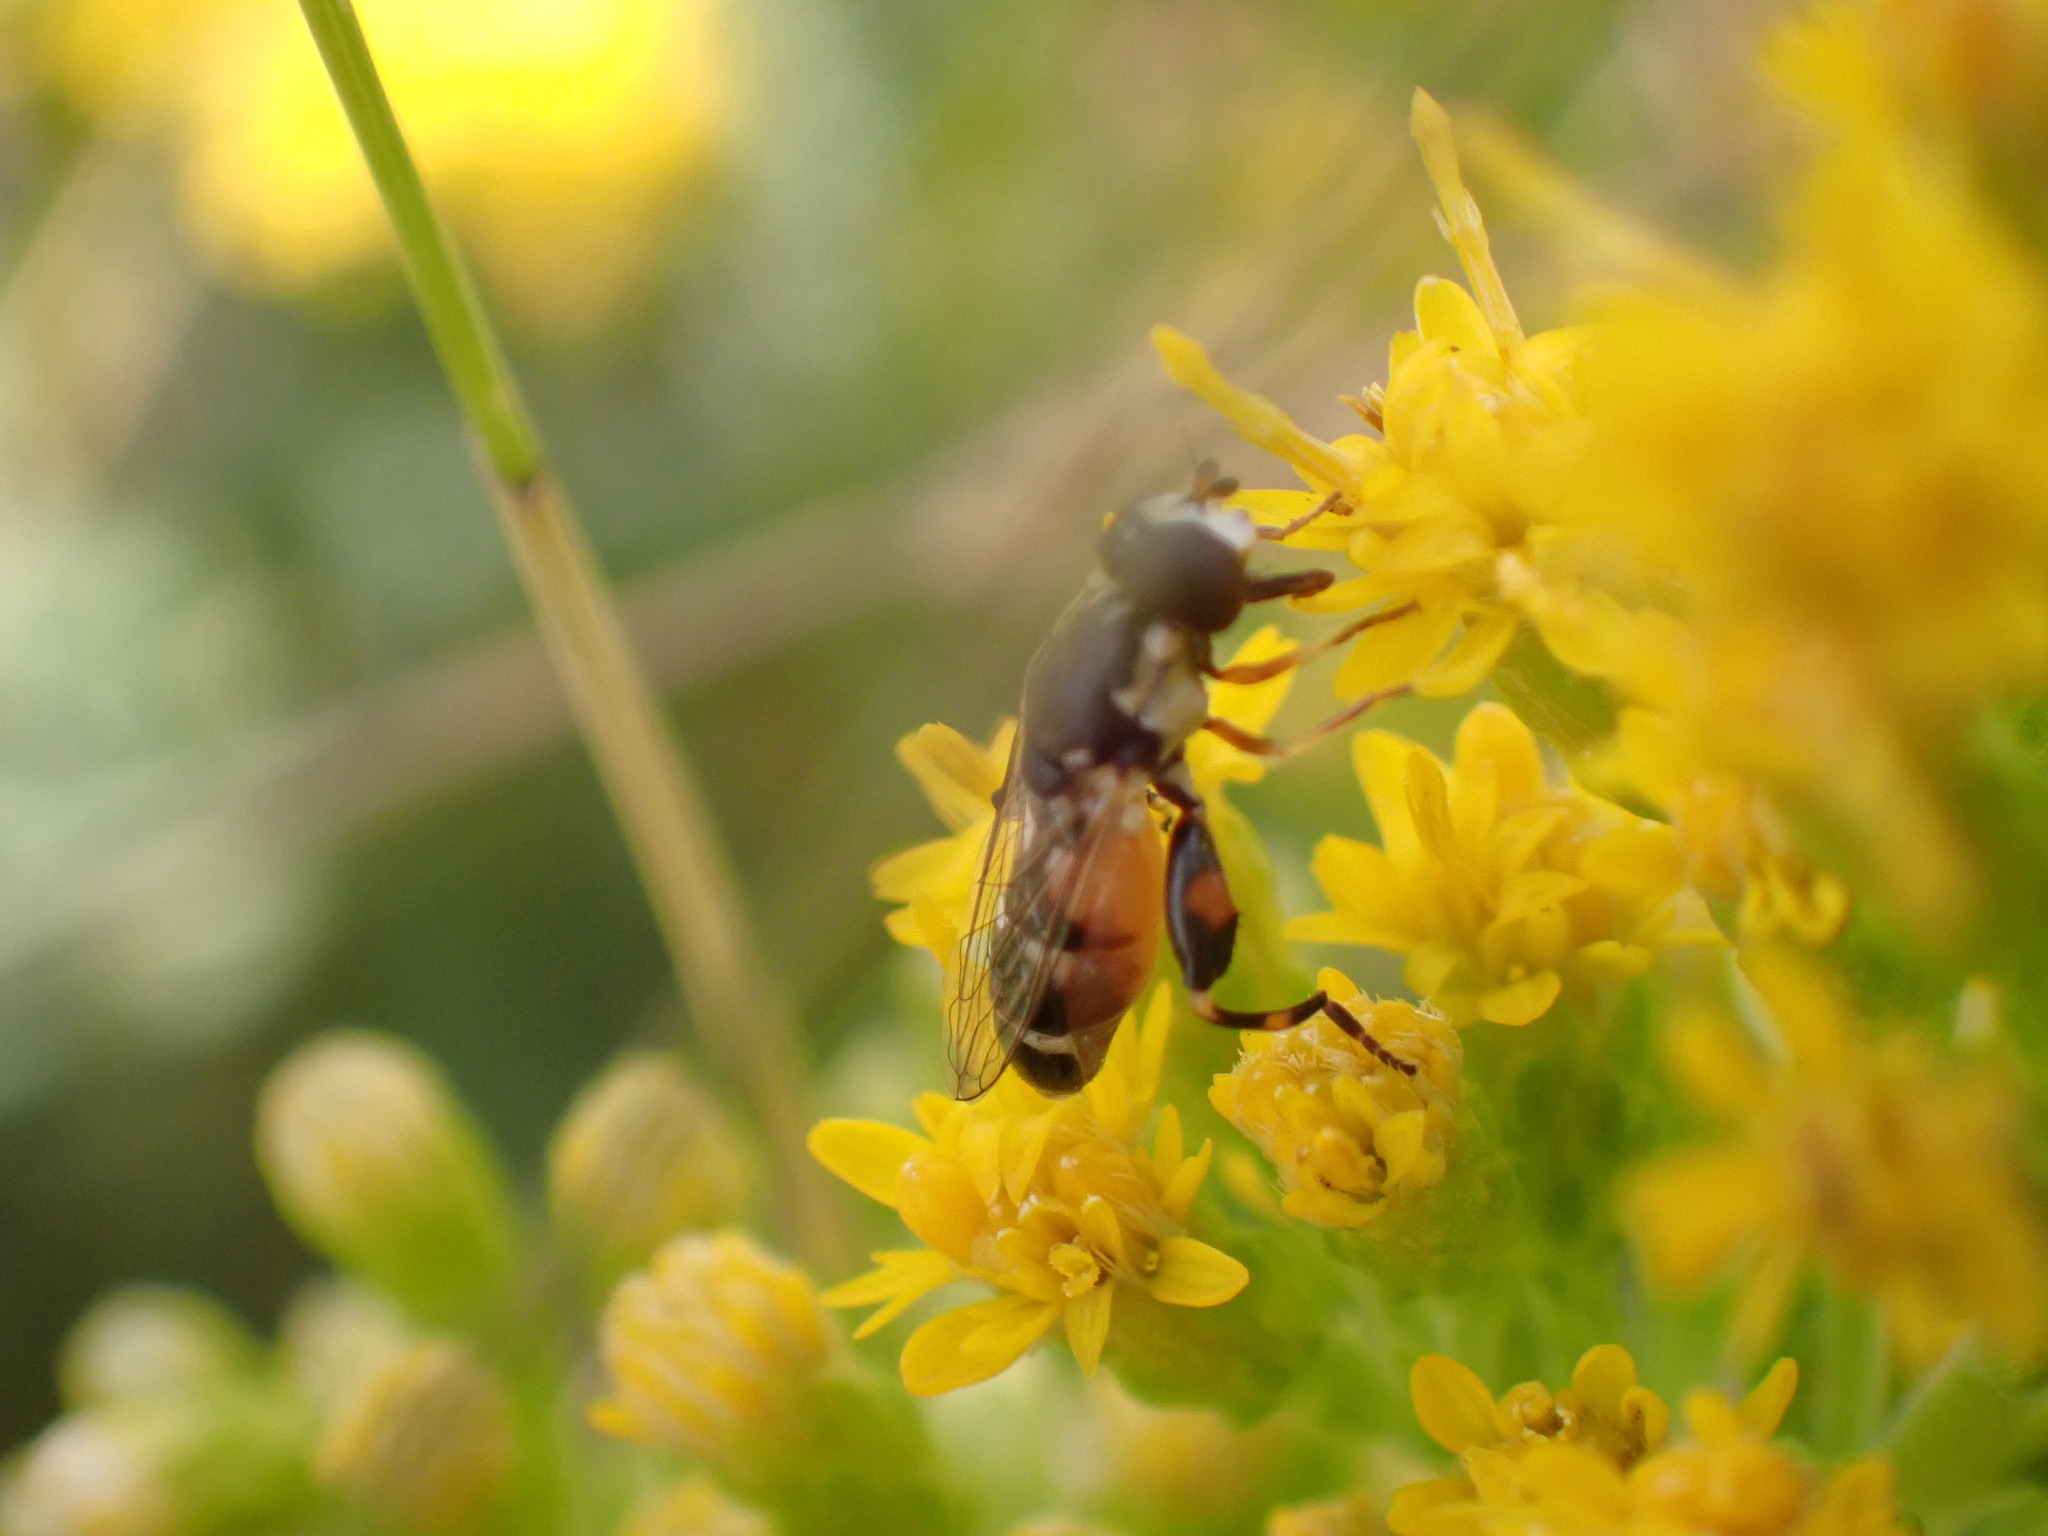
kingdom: Animalia
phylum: Arthropoda
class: Insecta
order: Diptera
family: Syrphidae
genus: Syritta
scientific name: Syritta pipiens
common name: Hover fly
